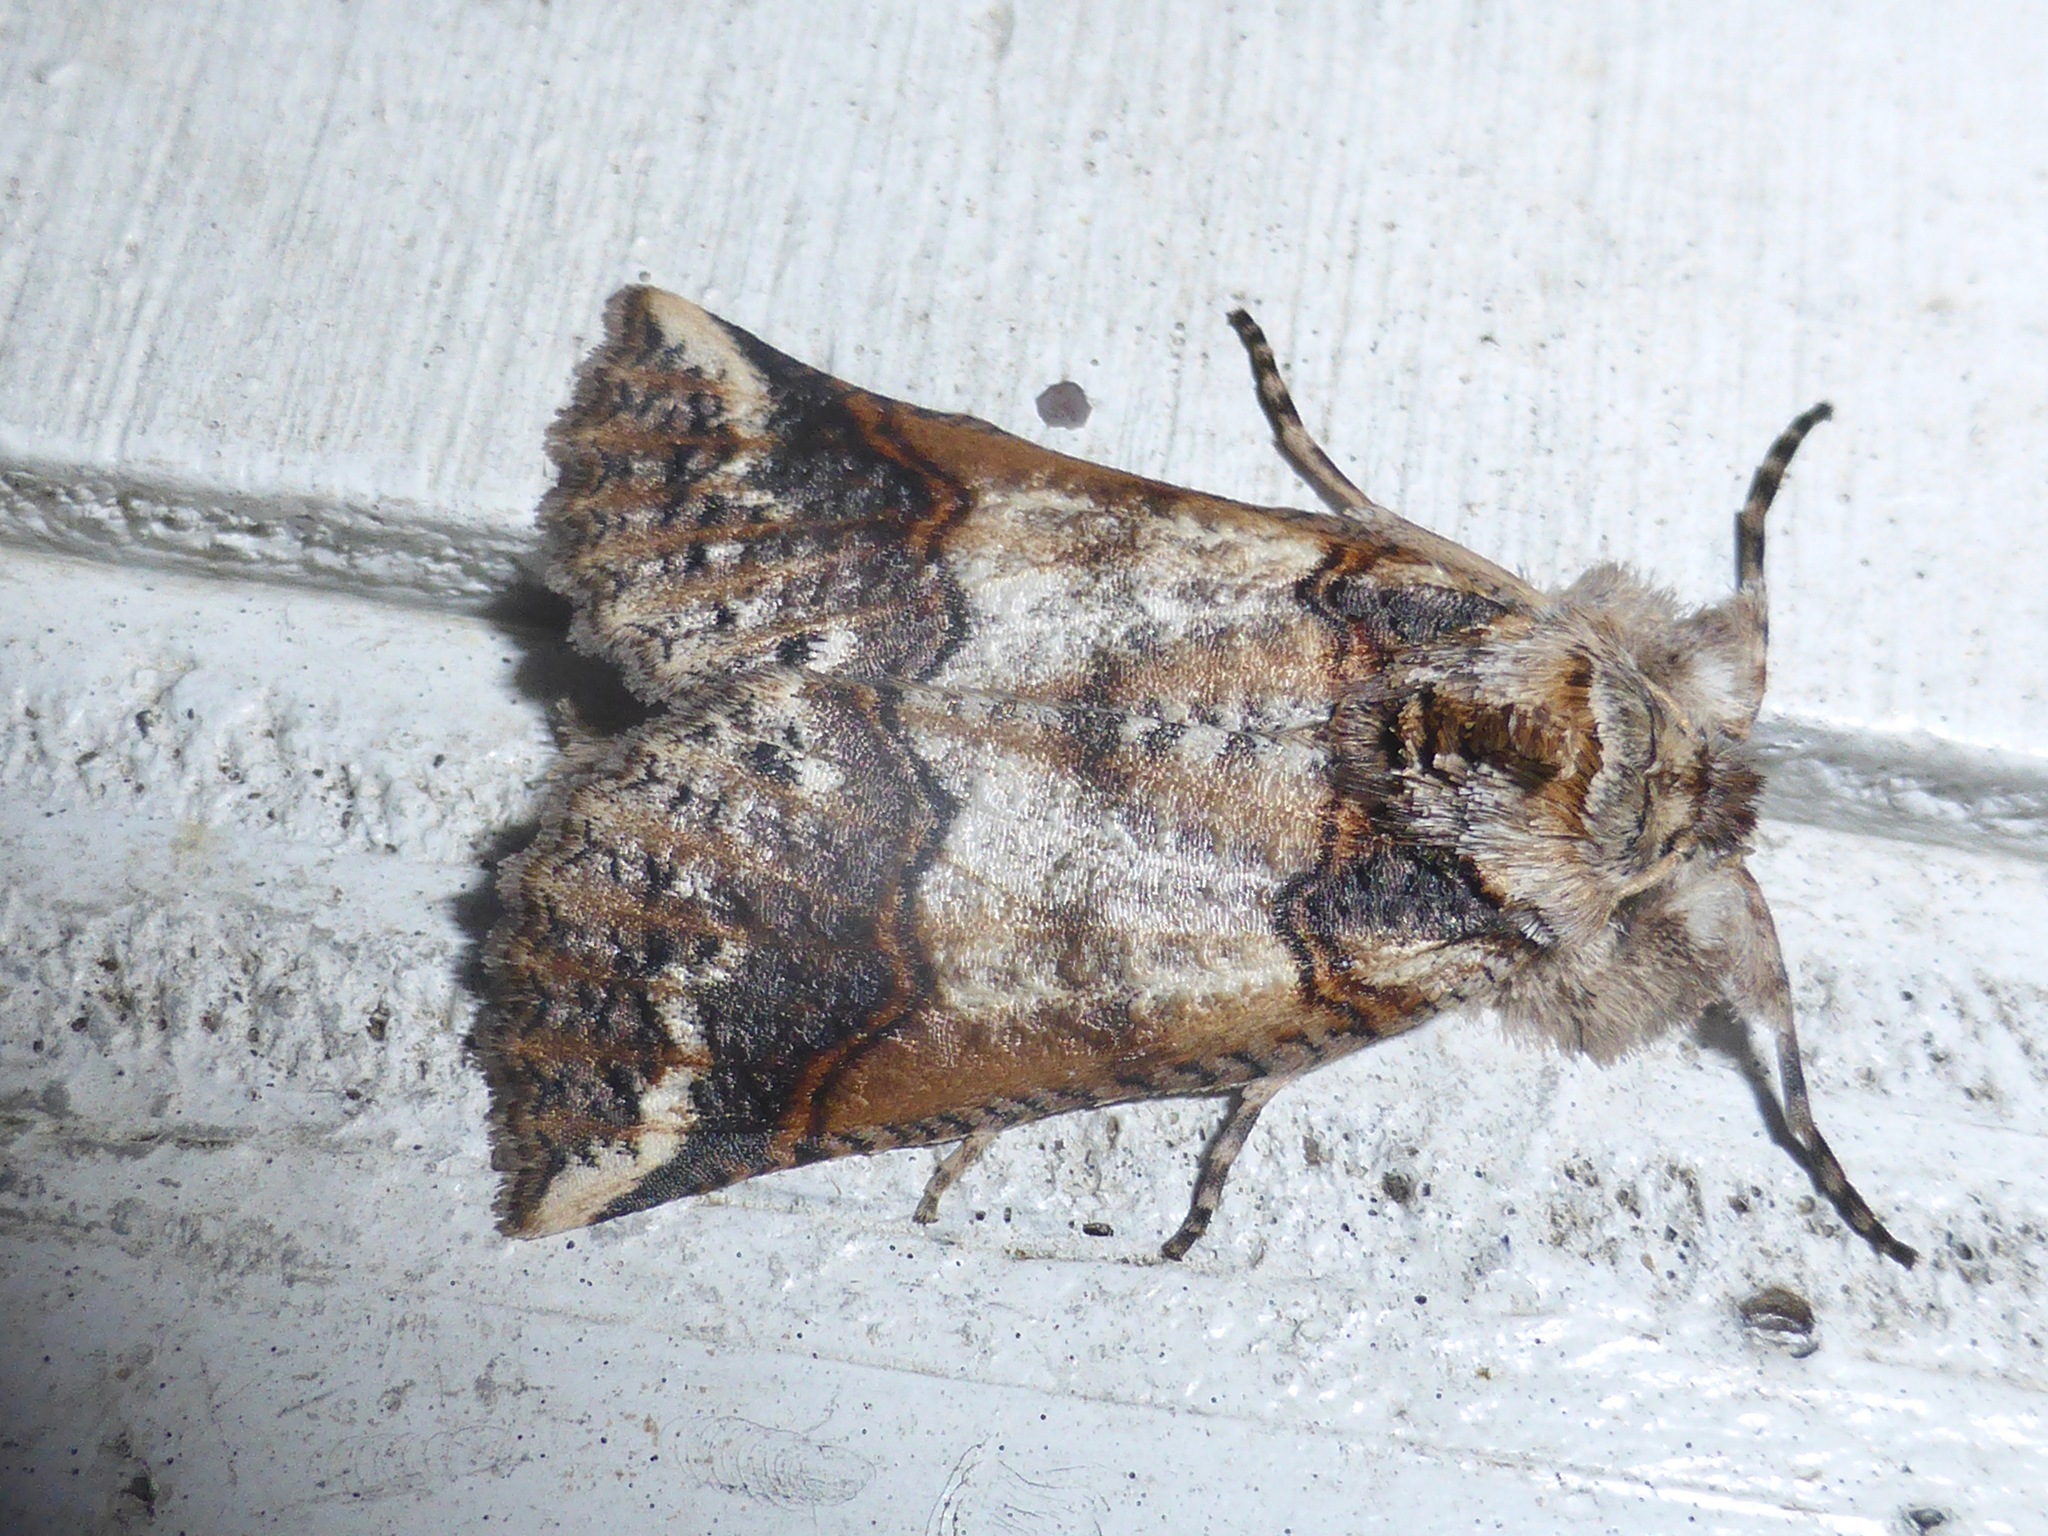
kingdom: Animalia
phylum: Arthropoda
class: Insecta
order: Lepidoptera
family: Geometridae
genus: Declana
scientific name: Declana
